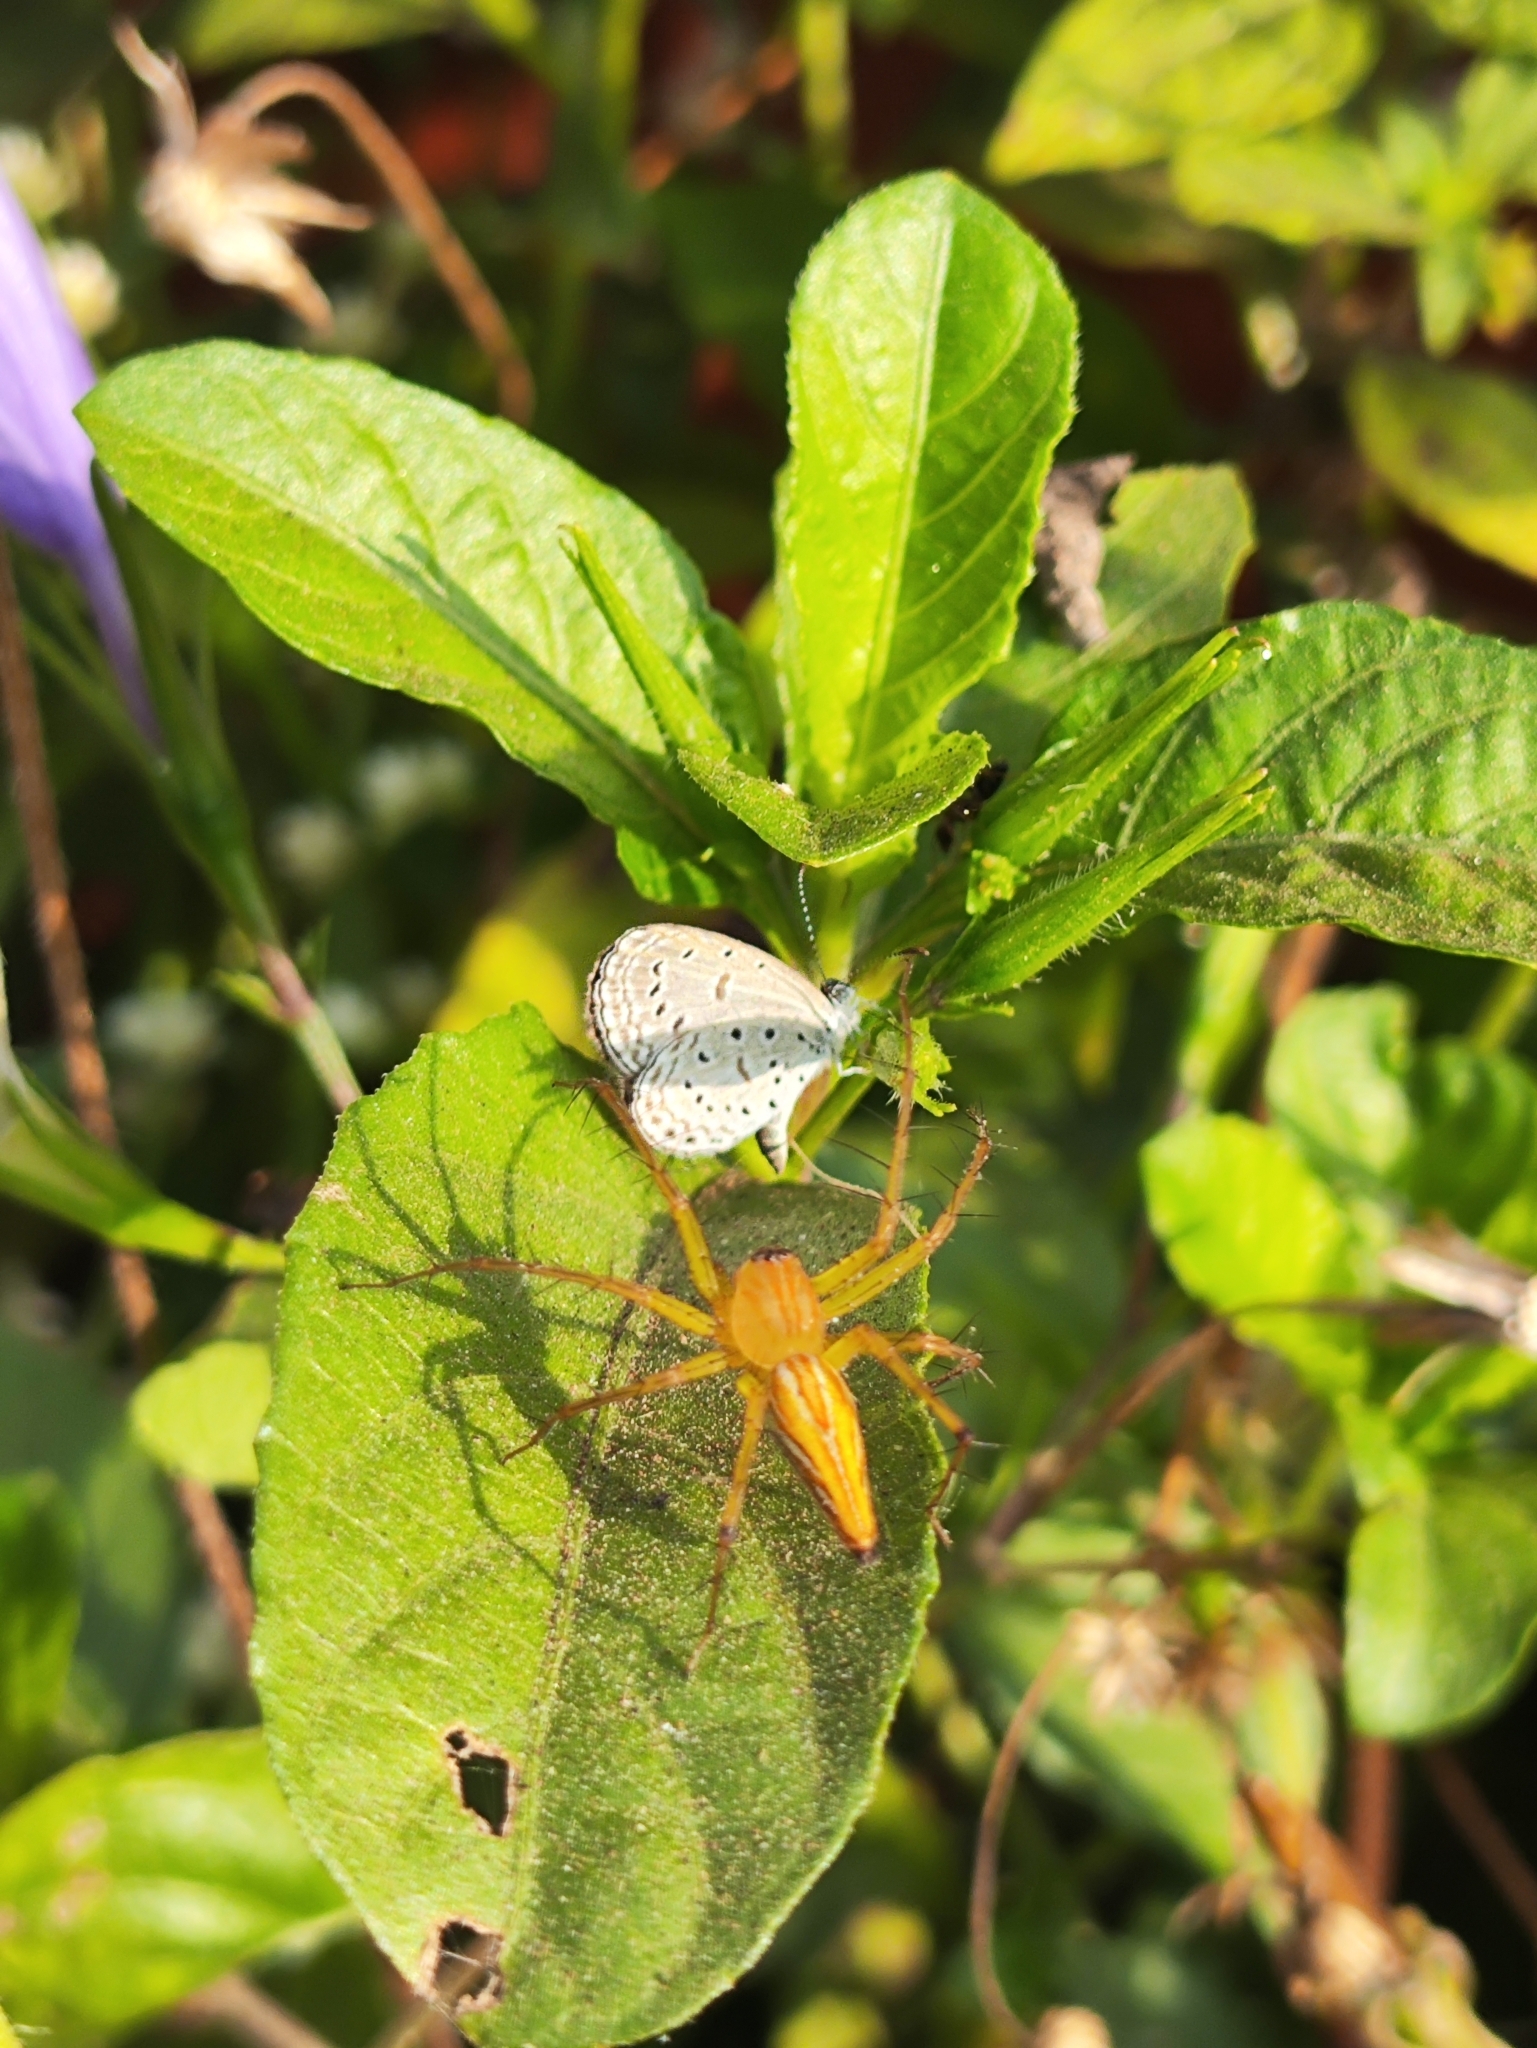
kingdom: Animalia
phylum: Arthropoda
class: Insecta
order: Lepidoptera
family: Lycaenidae
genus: Zizula
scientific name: Zizula hylax
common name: Gaika blue
